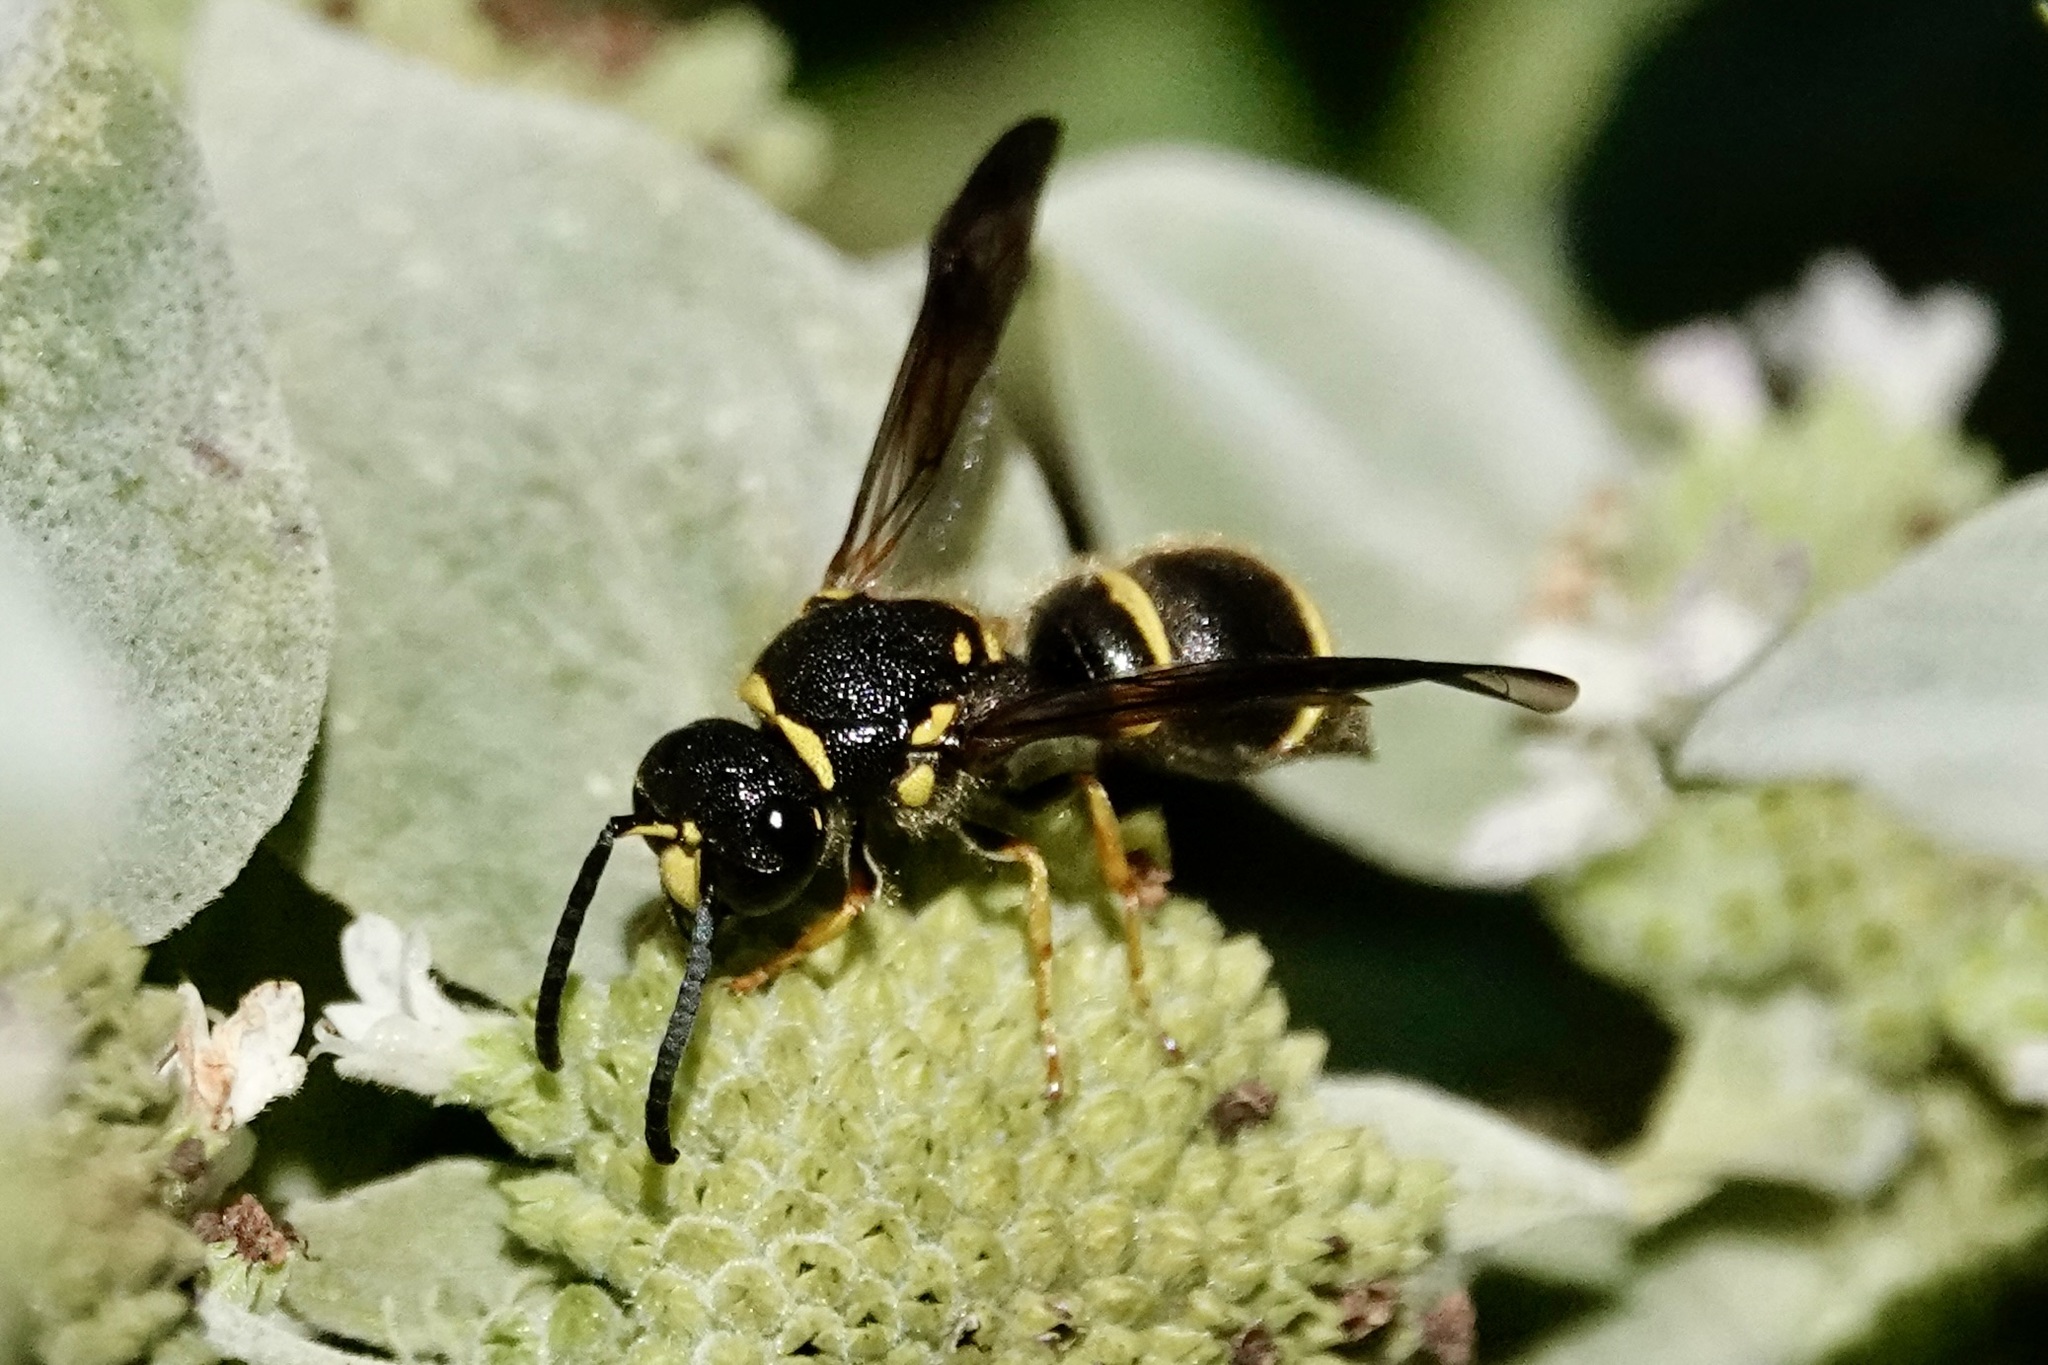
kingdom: Animalia
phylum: Arthropoda
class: Insecta
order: Hymenoptera
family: Vespidae
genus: Ancistrocerus
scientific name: Ancistrocerus campestris
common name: Smiling mason wasp
